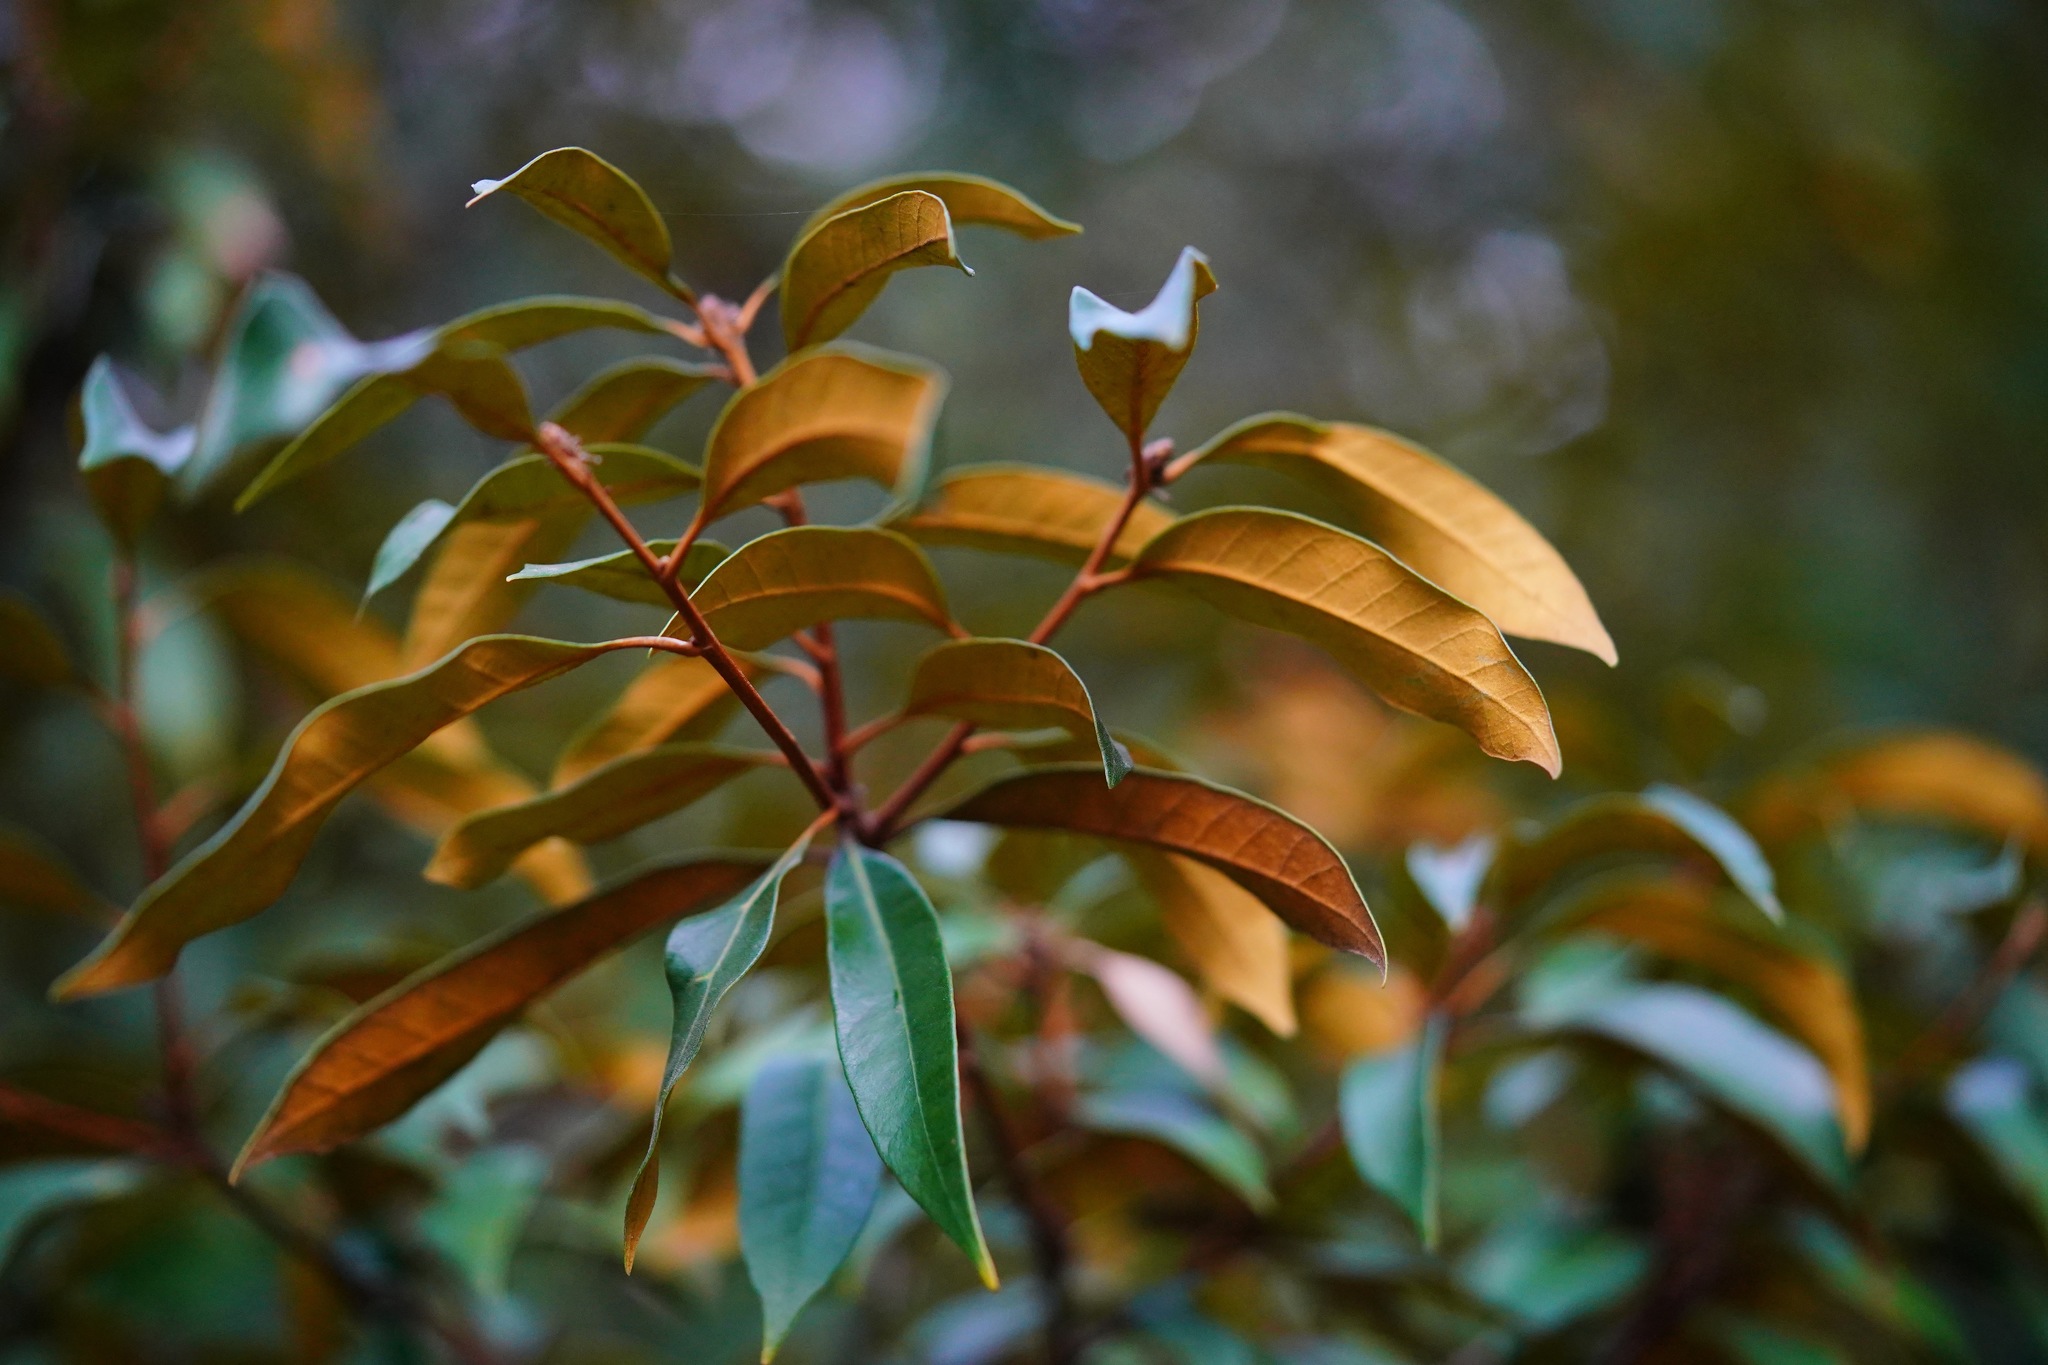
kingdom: Plantae
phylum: Tracheophyta
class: Magnoliopsida
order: Fagales
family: Fagaceae
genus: Chrysolepis
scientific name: Chrysolepis chrysophylla
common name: Giant chinquapin
